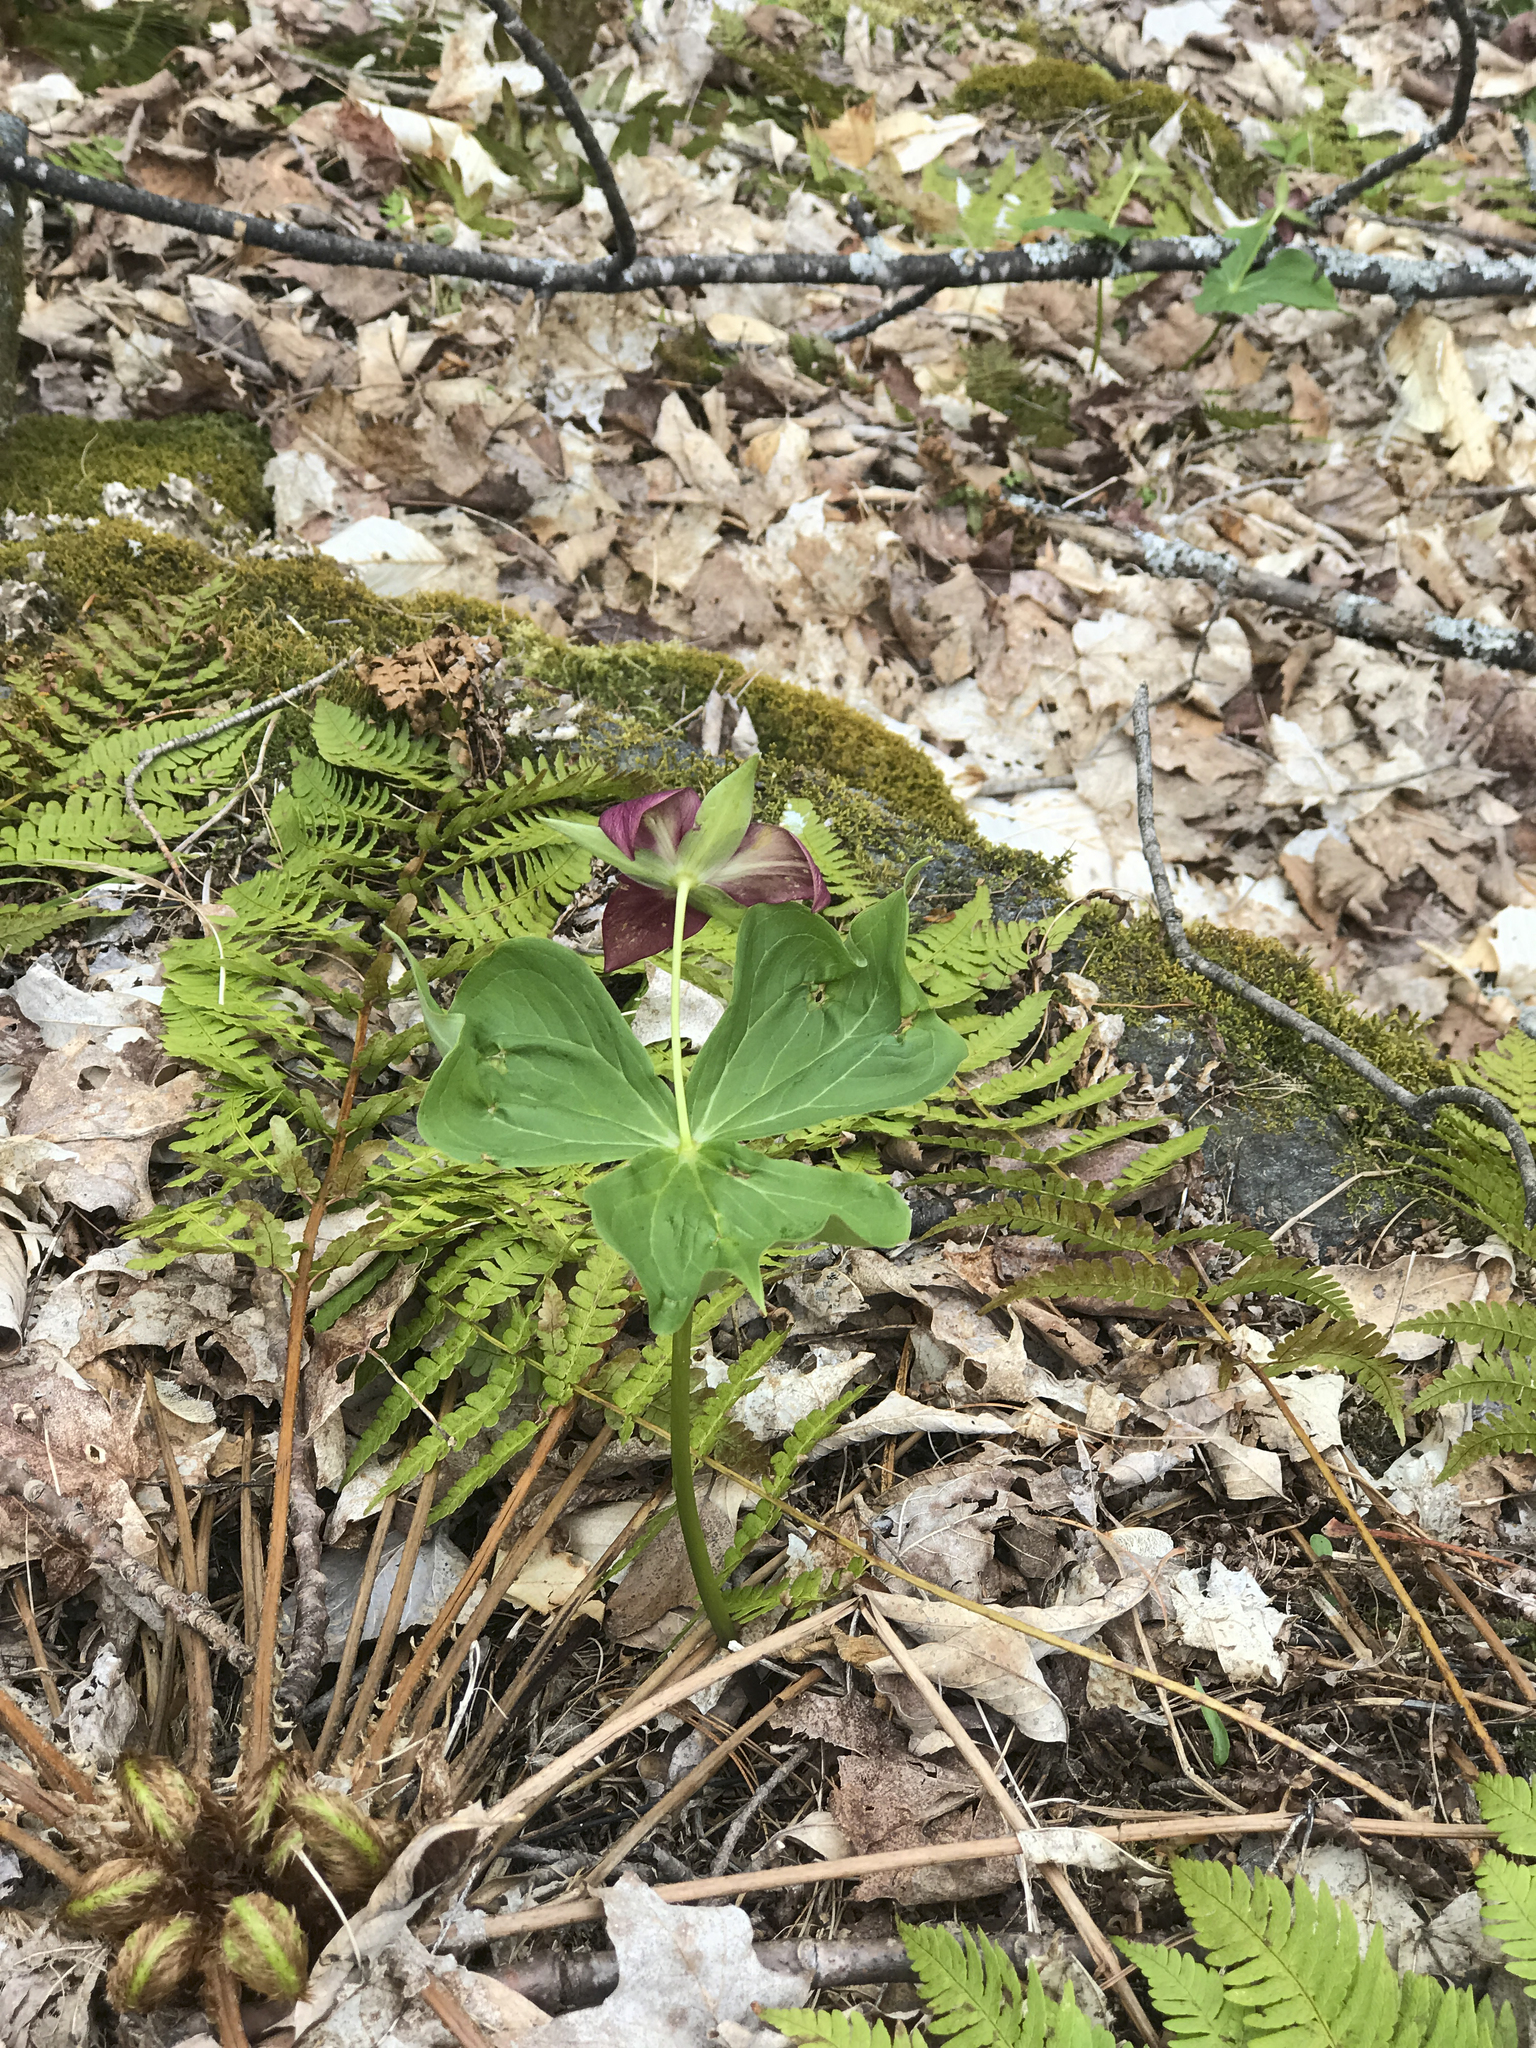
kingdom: Plantae
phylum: Tracheophyta
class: Liliopsida
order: Liliales
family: Melanthiaceae
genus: Trillium
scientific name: Trillium erectum
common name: Purple trillium
